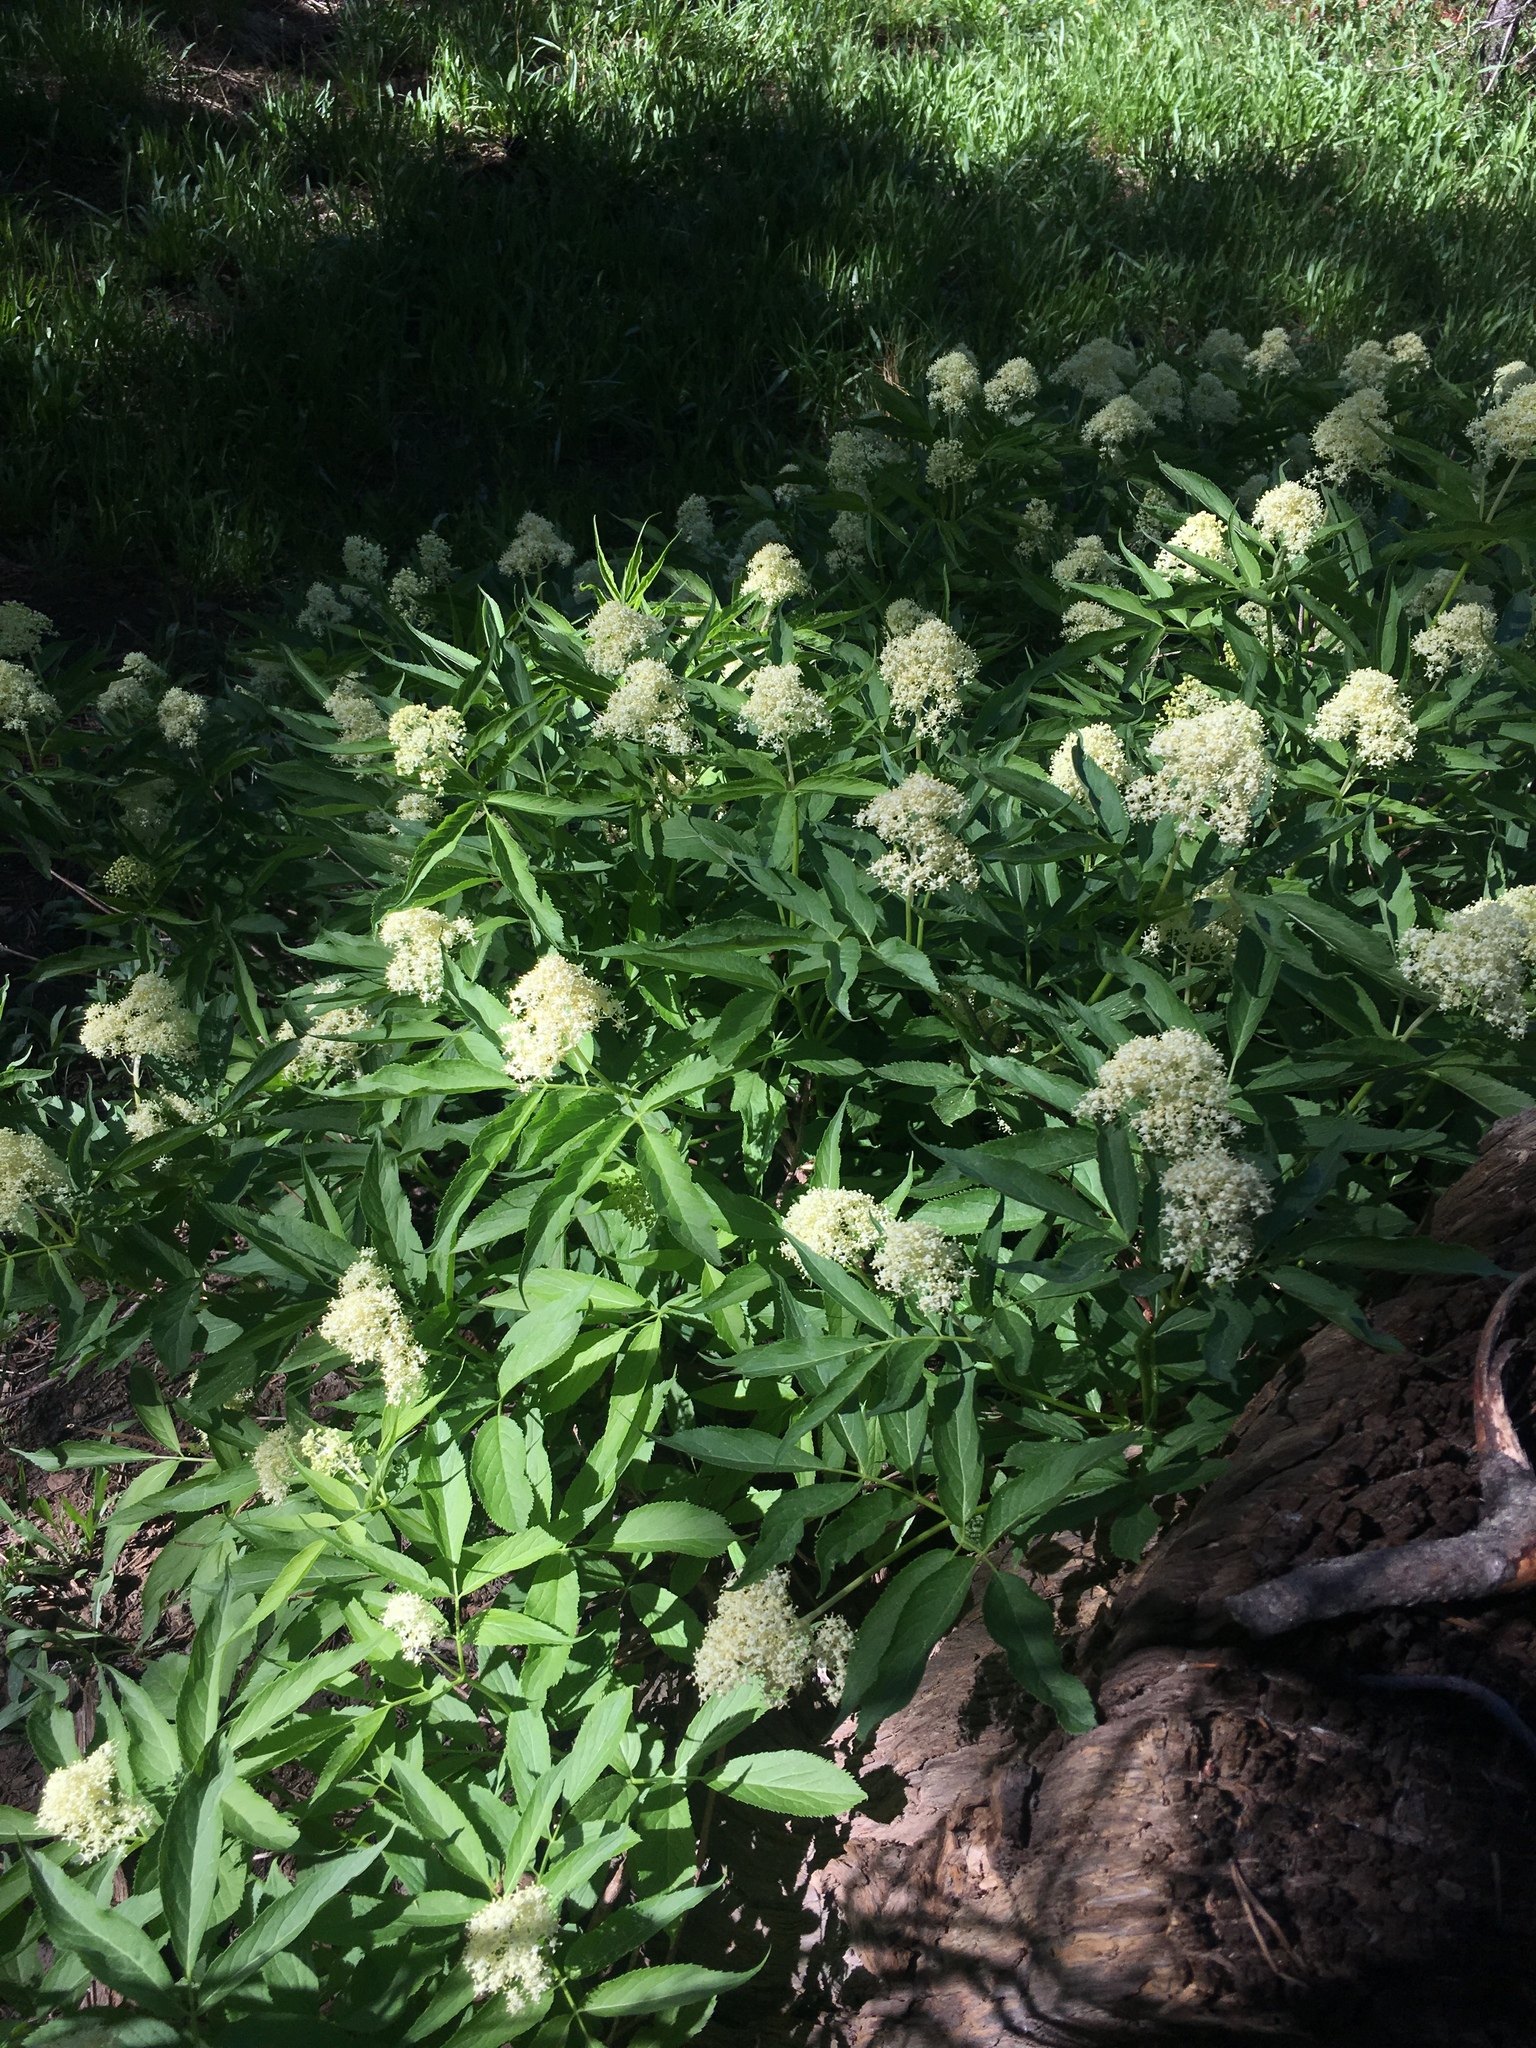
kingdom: Plantae
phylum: Tracheophyta
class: Magnoliopsida
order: Dipsacales
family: Viburnaceae
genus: Sambucus
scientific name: Sambucus racemosa
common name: Red-berried elder
